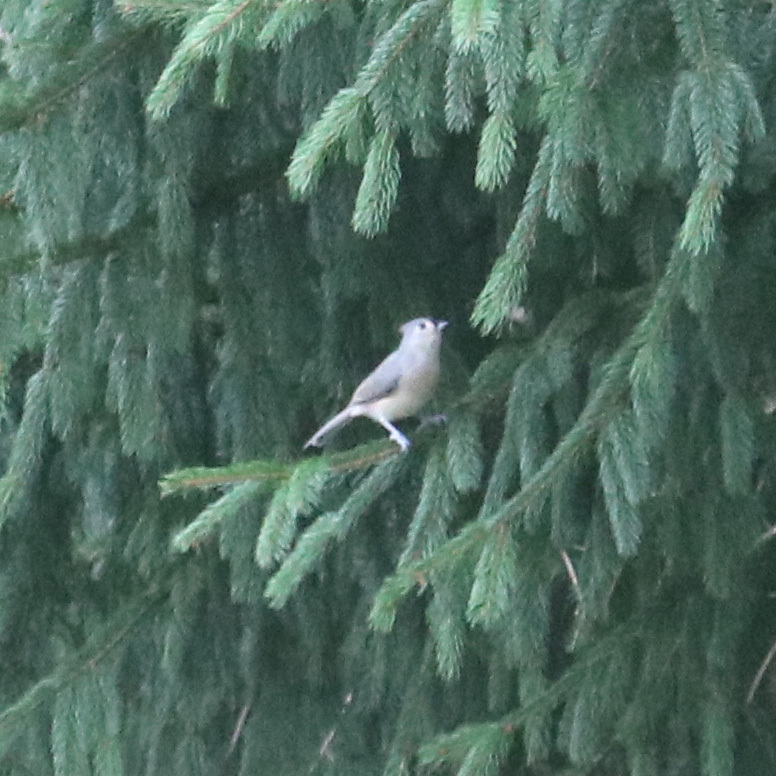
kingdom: Animalia
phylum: Chordata
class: Aves
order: Passeriformes
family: Paridae
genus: Baeolophus
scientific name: Baeolophus bicolor
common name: Tufted titmouse
